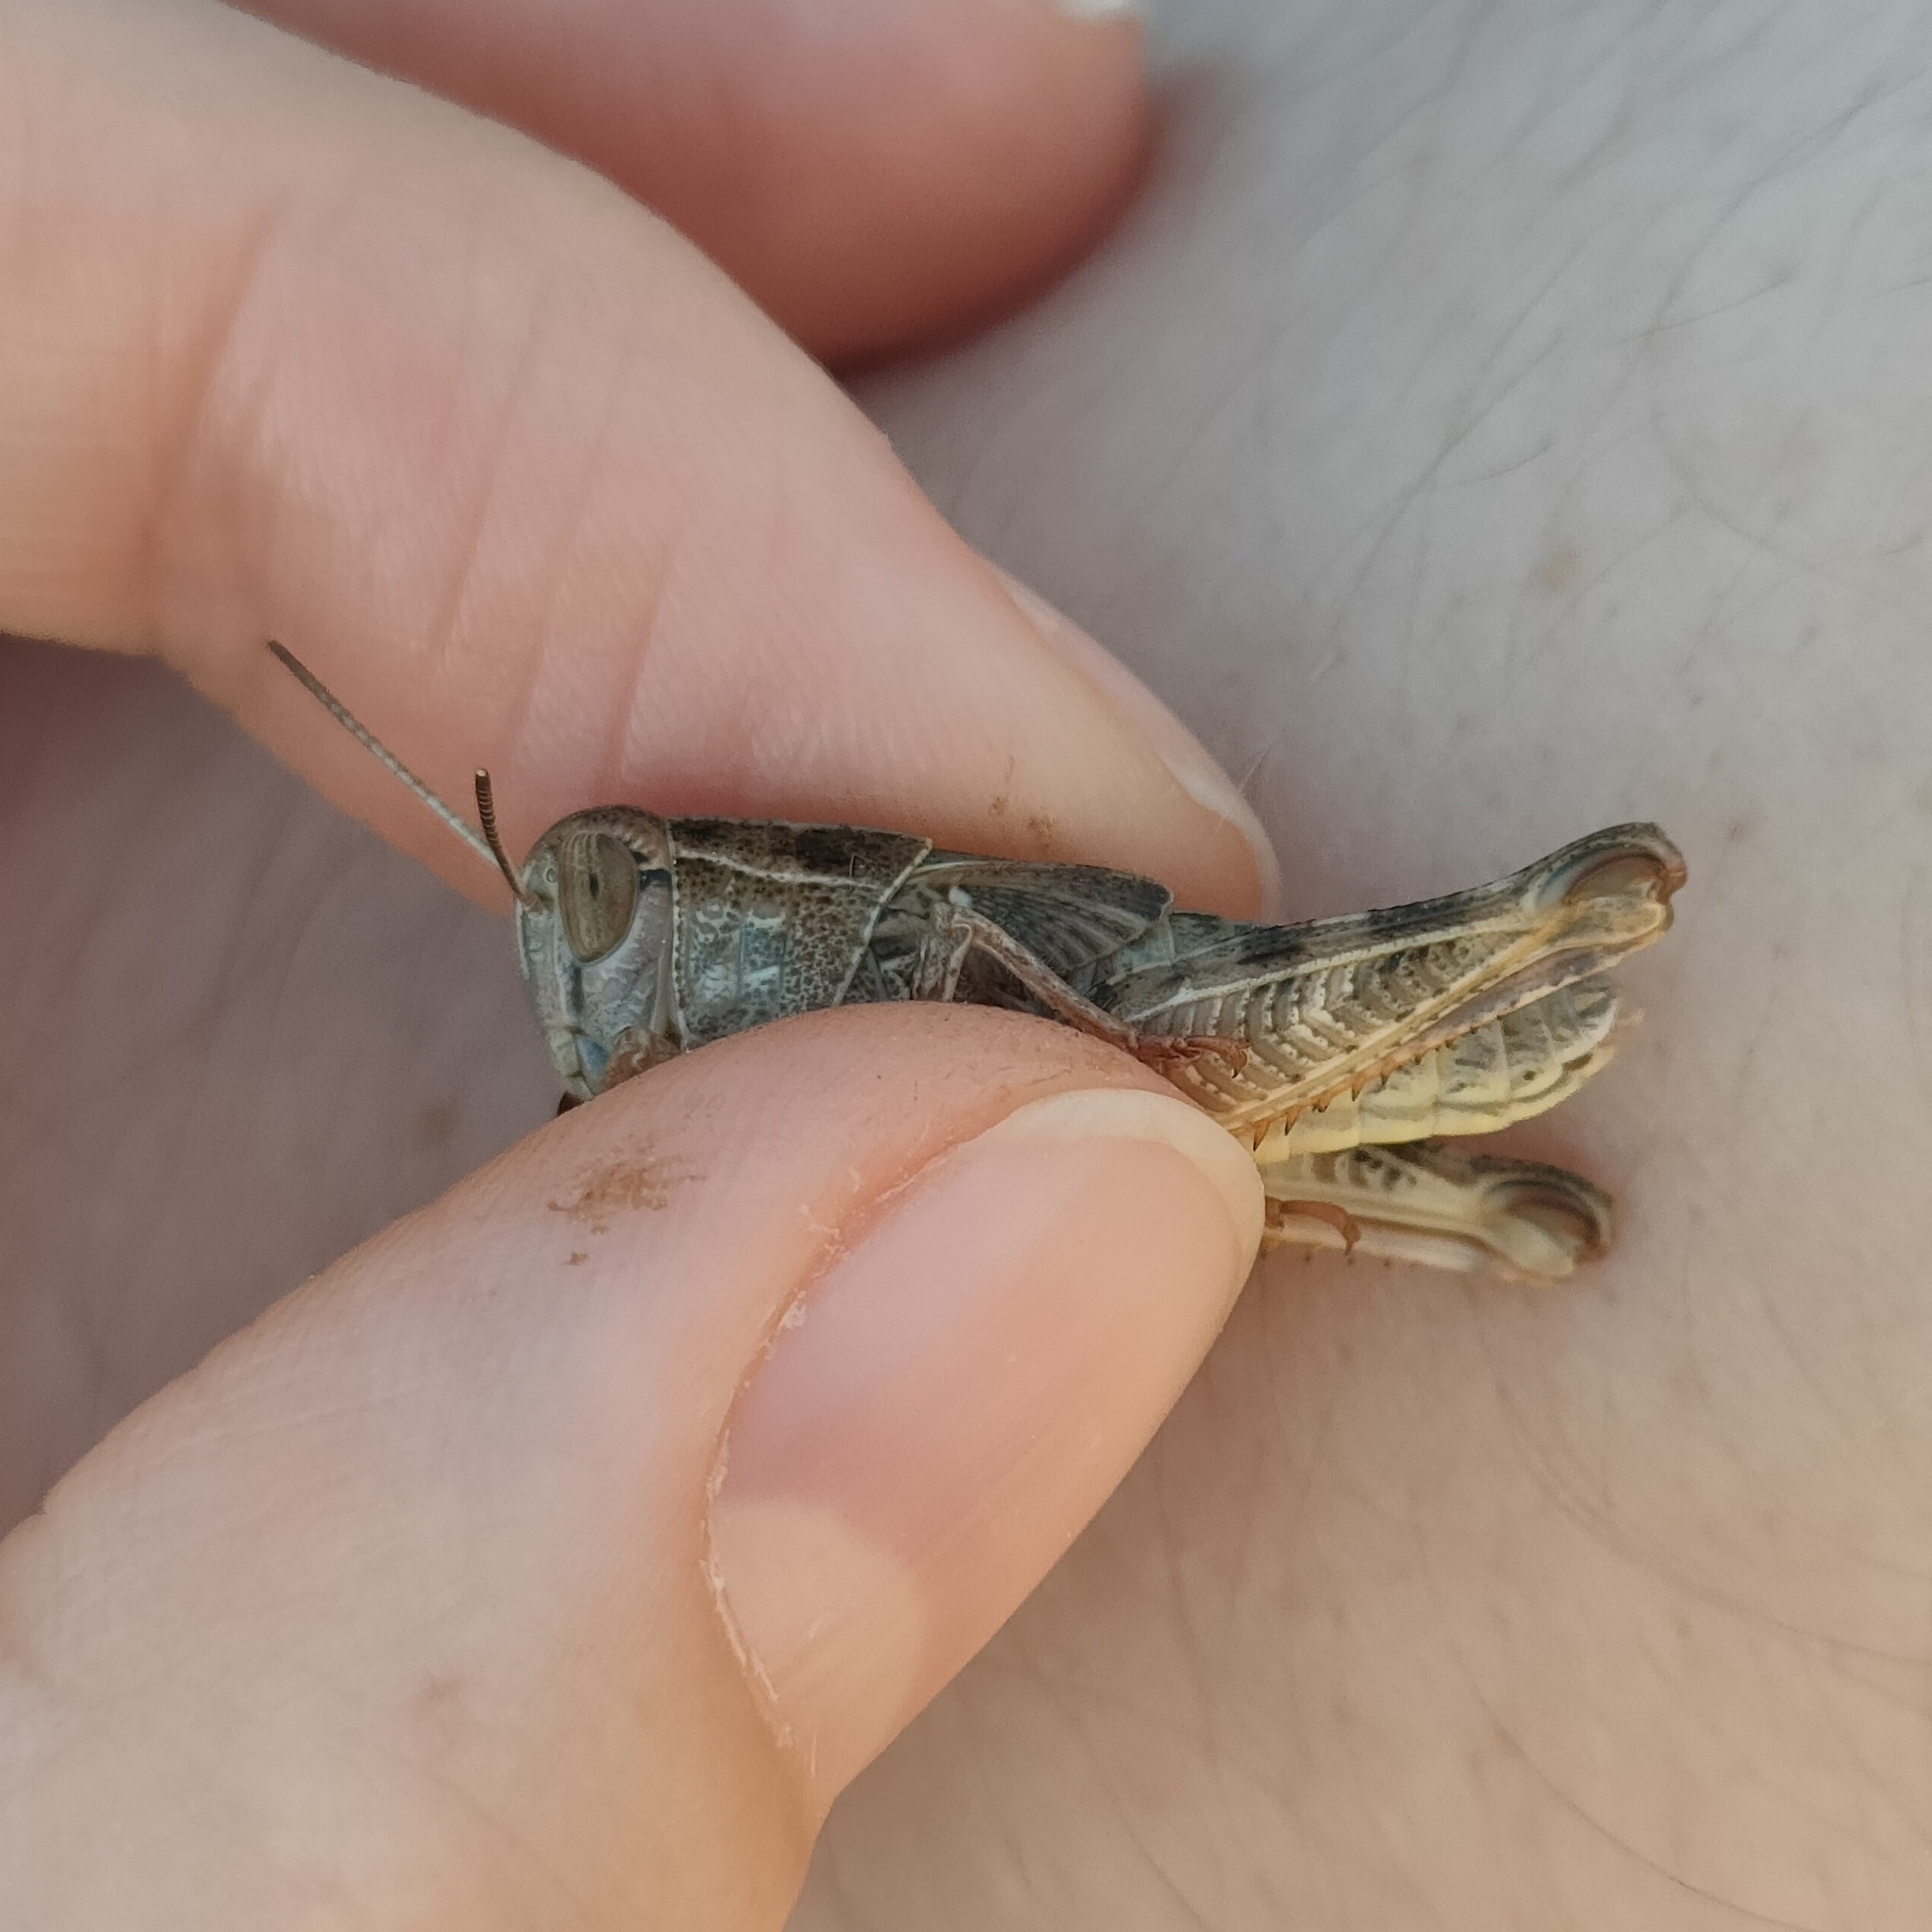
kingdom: Animalia
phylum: Arthropoda
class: Insecta
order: Orthoptera
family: Acrididae
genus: Calliptamus
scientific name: Calliptamus italicus
